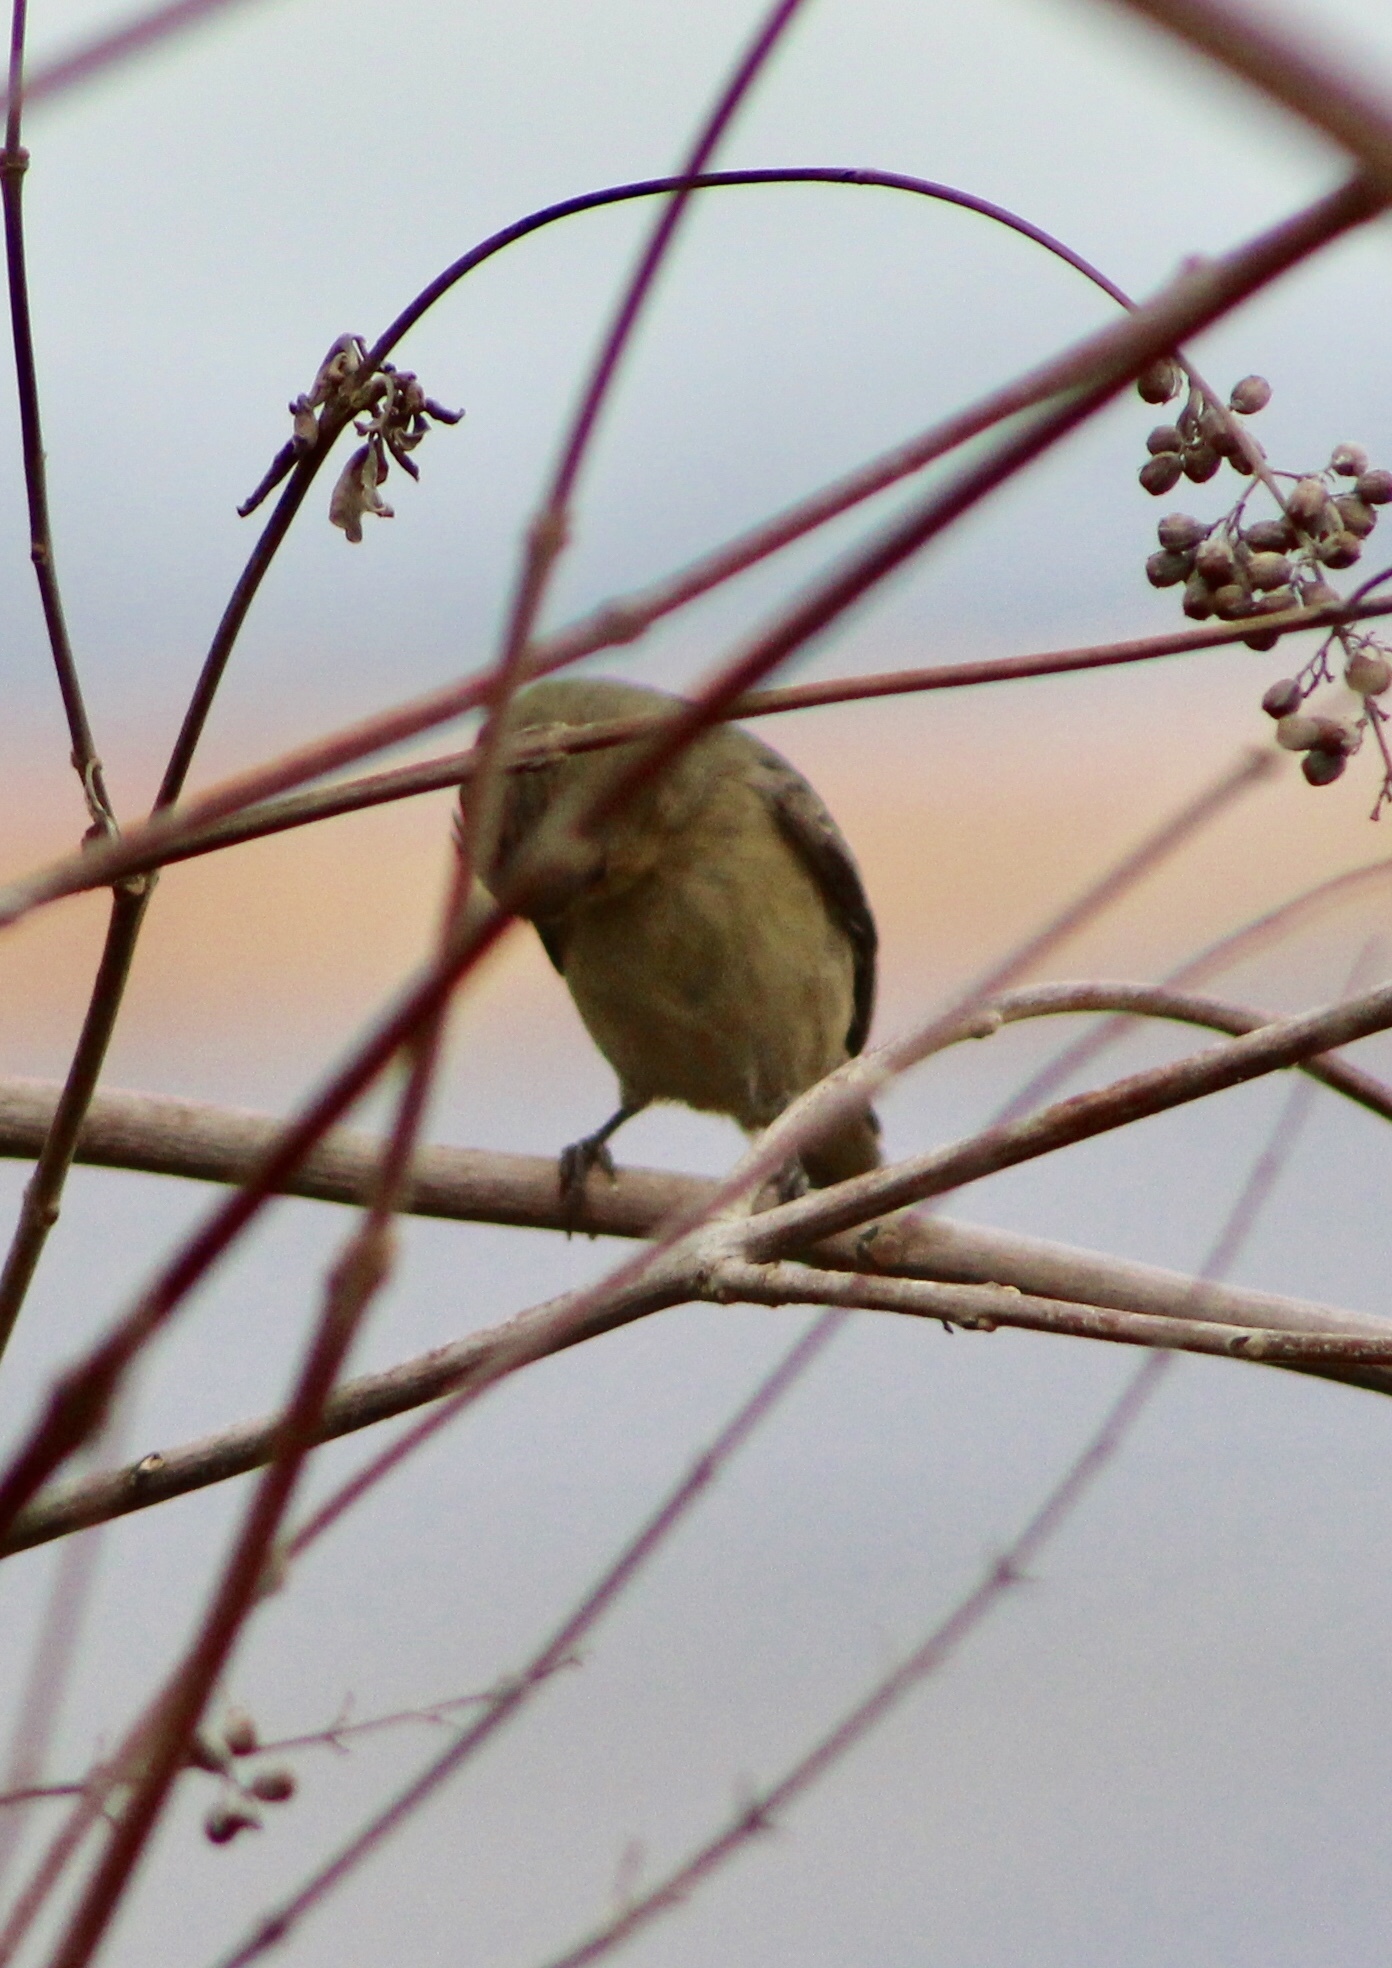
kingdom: Animalia
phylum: Chordata
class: Aves
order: Passeriformes
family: Fringillidae
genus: Spinus
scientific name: Spinus psaltria
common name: Lesser goldfinch
